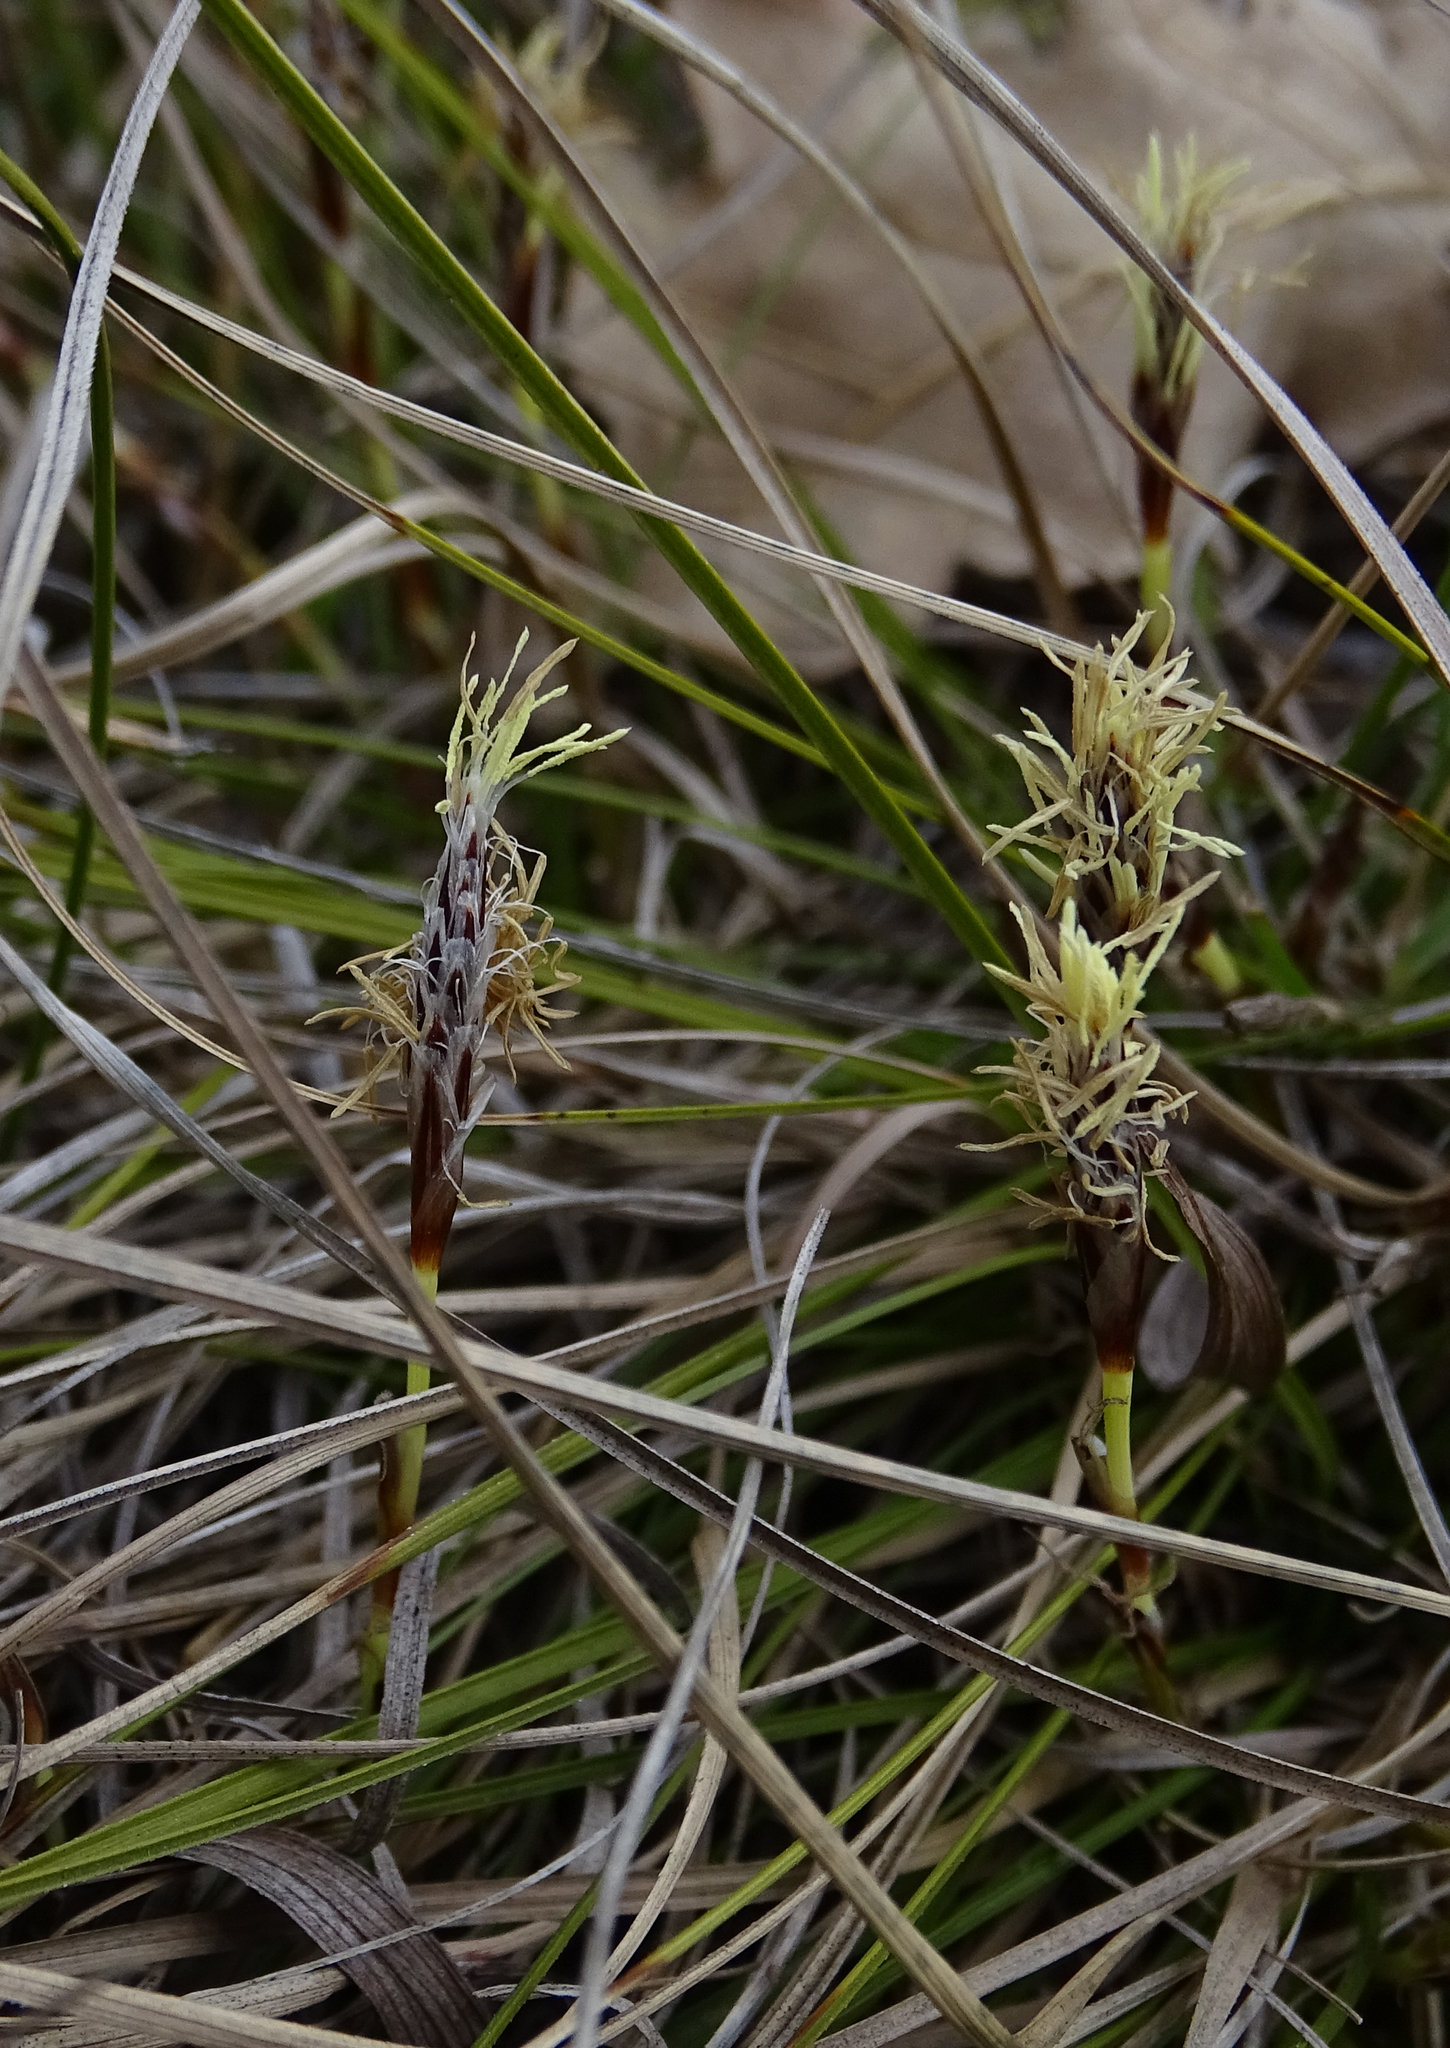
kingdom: Plantae
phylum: Tracheophyta
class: Liliopsida
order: Poales
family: Cyperaceae
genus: Carex
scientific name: Carex humilis
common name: Dwarf sedge
